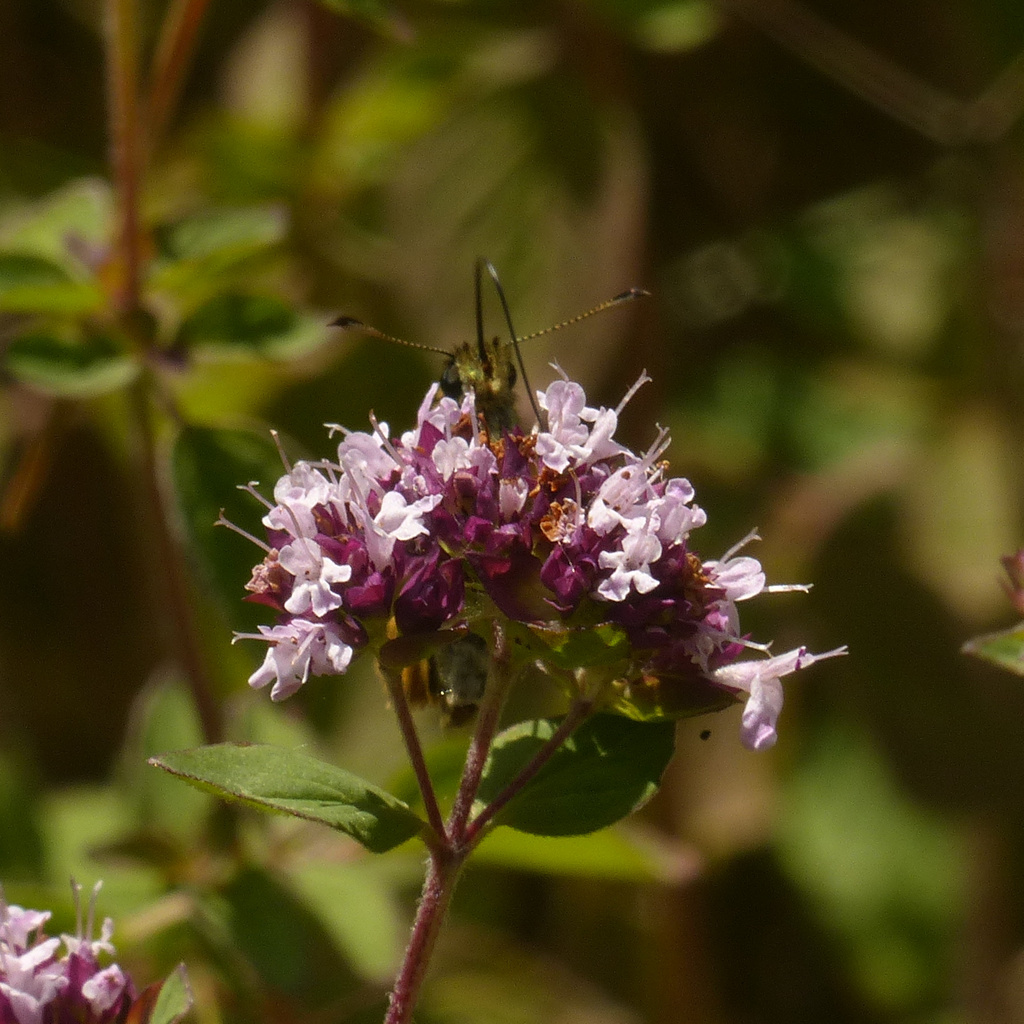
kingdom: Animalia
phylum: Arthropoda
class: Insecta
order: Lepidoptera
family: Hesperiidae
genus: Ochlodes
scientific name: Ochlodes venata
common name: Large skipper
